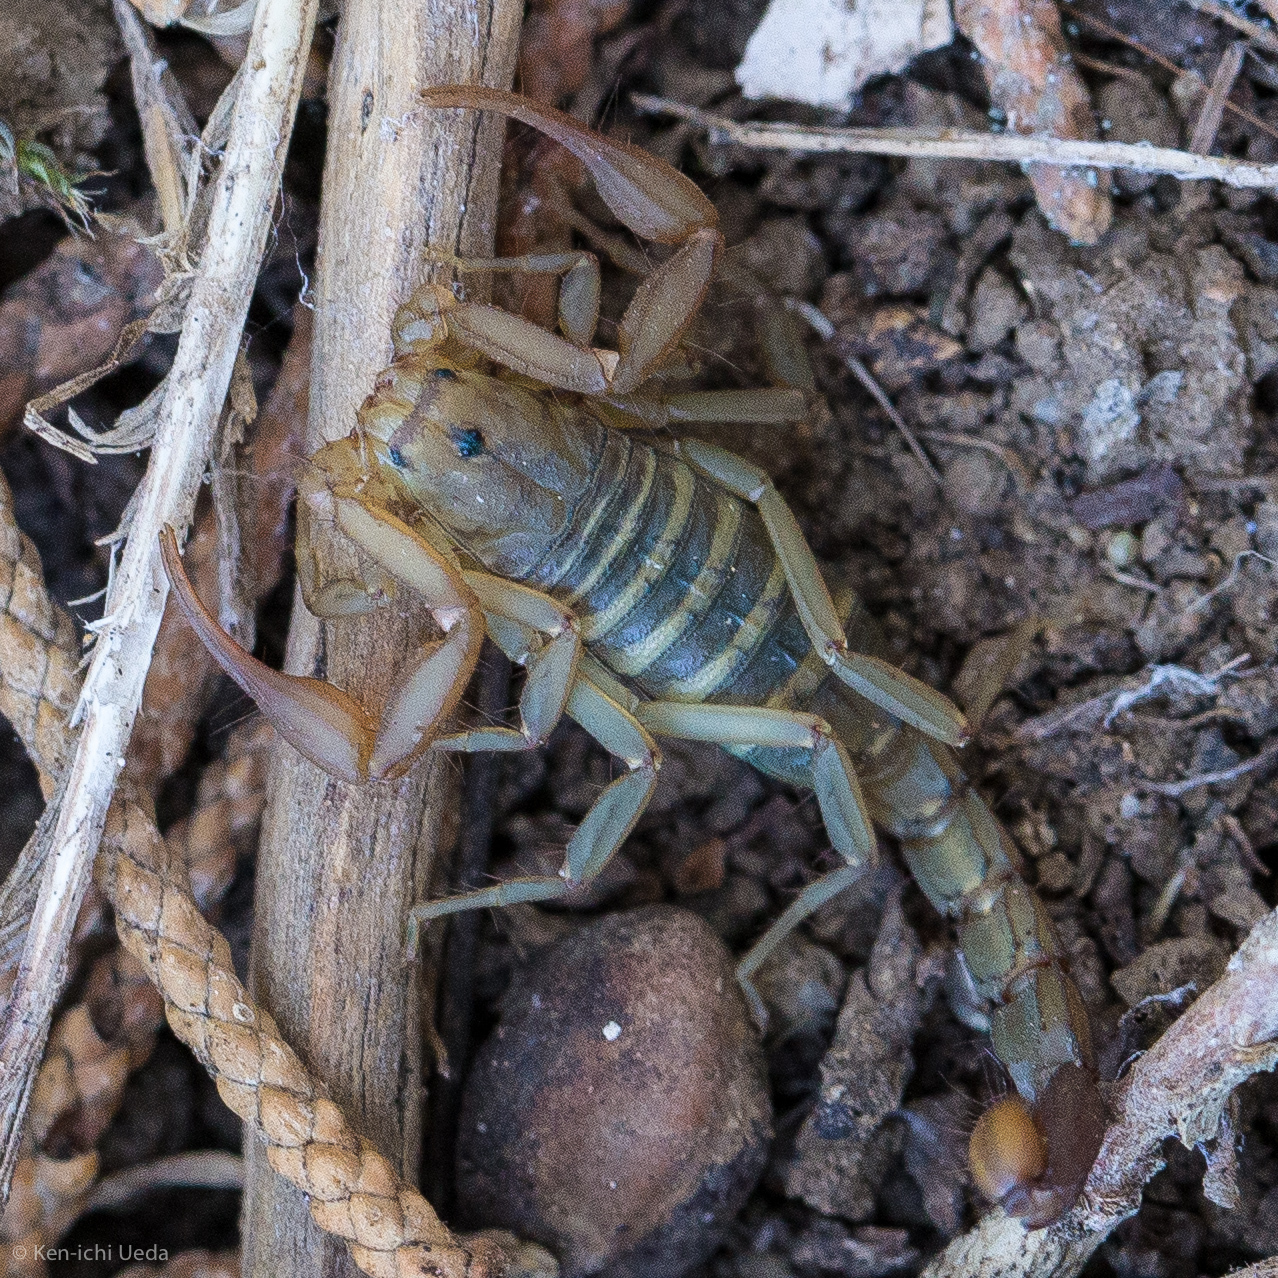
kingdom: Animalia
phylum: Arthropoda
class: Arachnida
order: Scorpiones
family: Vaejovidae
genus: Serradigitus
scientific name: Serradigitus gertschi
